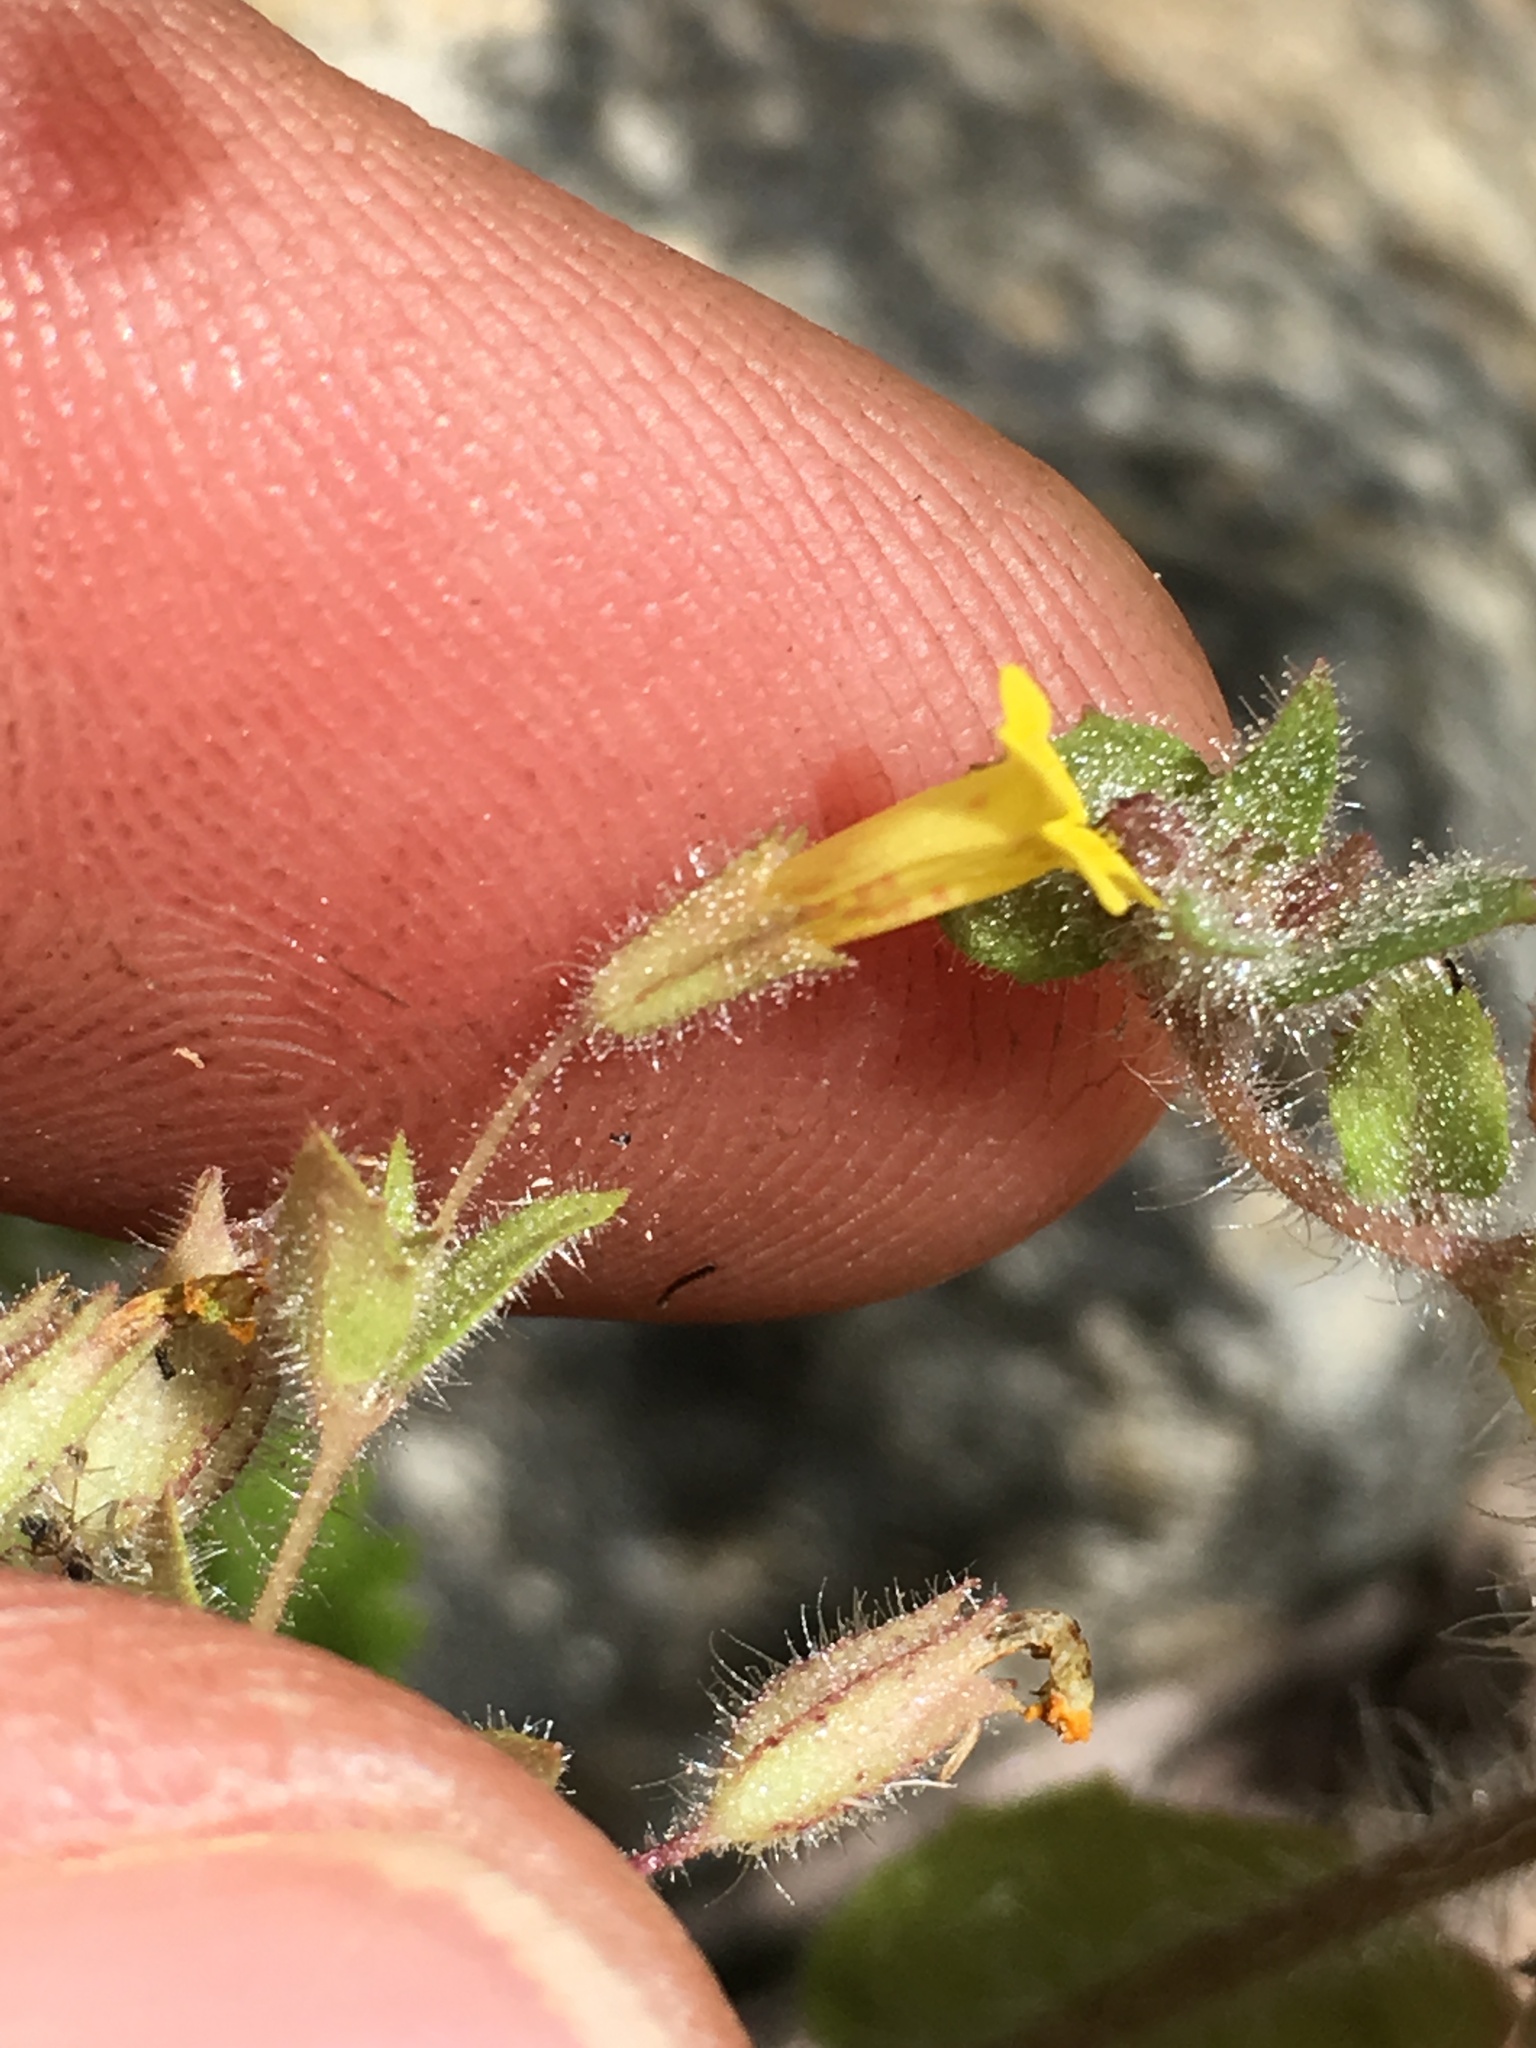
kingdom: Plantae
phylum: Tracheophyta
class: Magnoliopsida
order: Lamiales
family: Phrymaceae
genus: Erythranthe
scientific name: Erythranthe floribunda
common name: Floriferous monkeyflower
